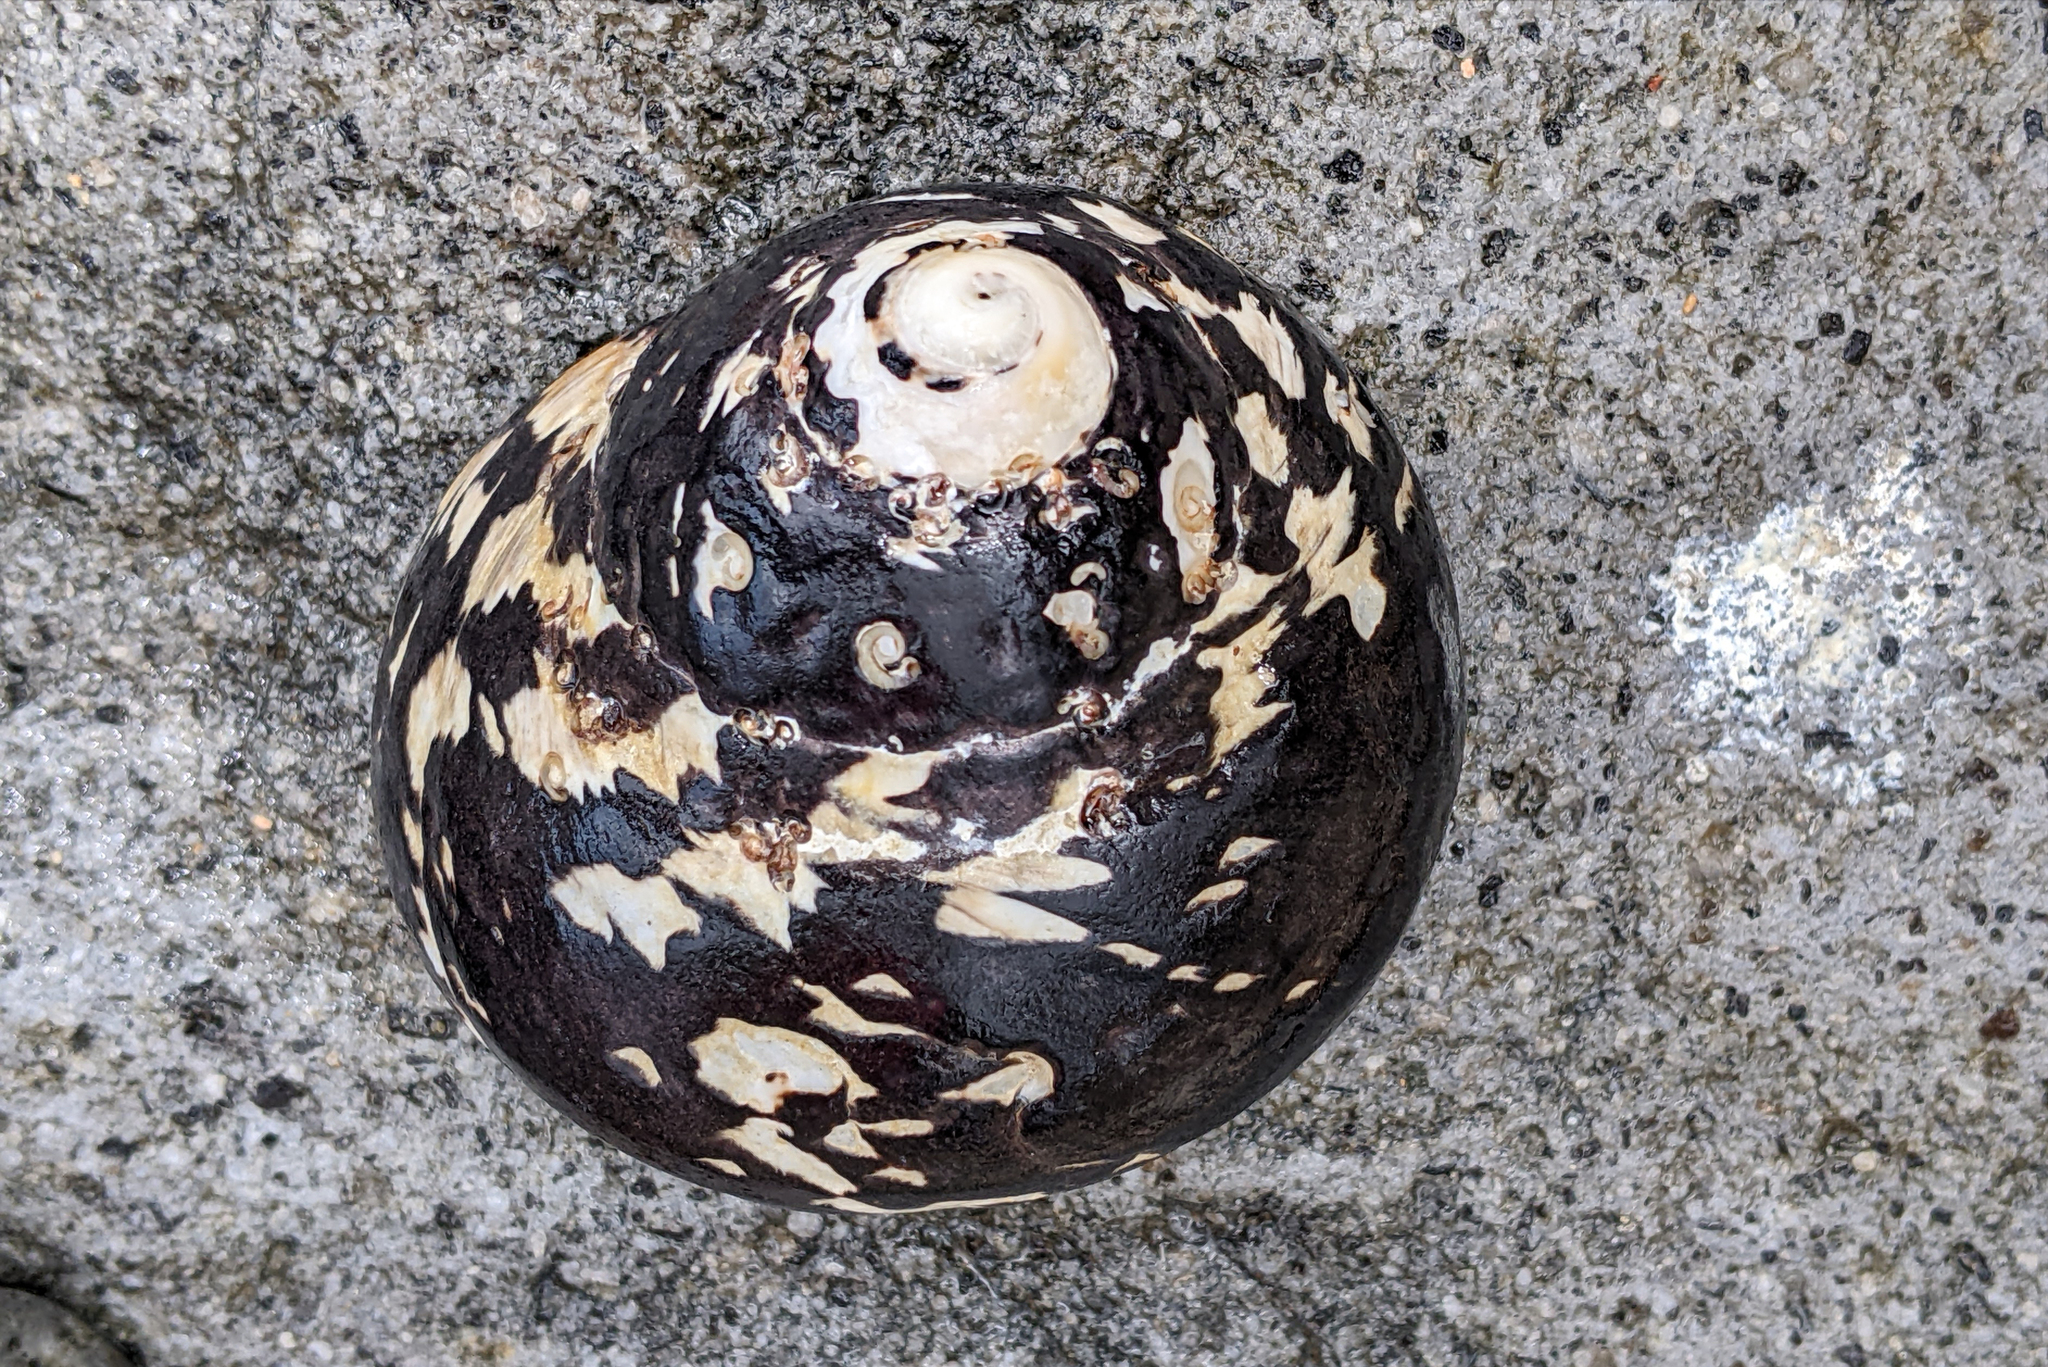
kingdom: Animalia
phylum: Mollusca
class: Gastropoda
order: Trochida
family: Tegulidae
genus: Cittarium
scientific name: Cittarium pica
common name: West indian topshell
